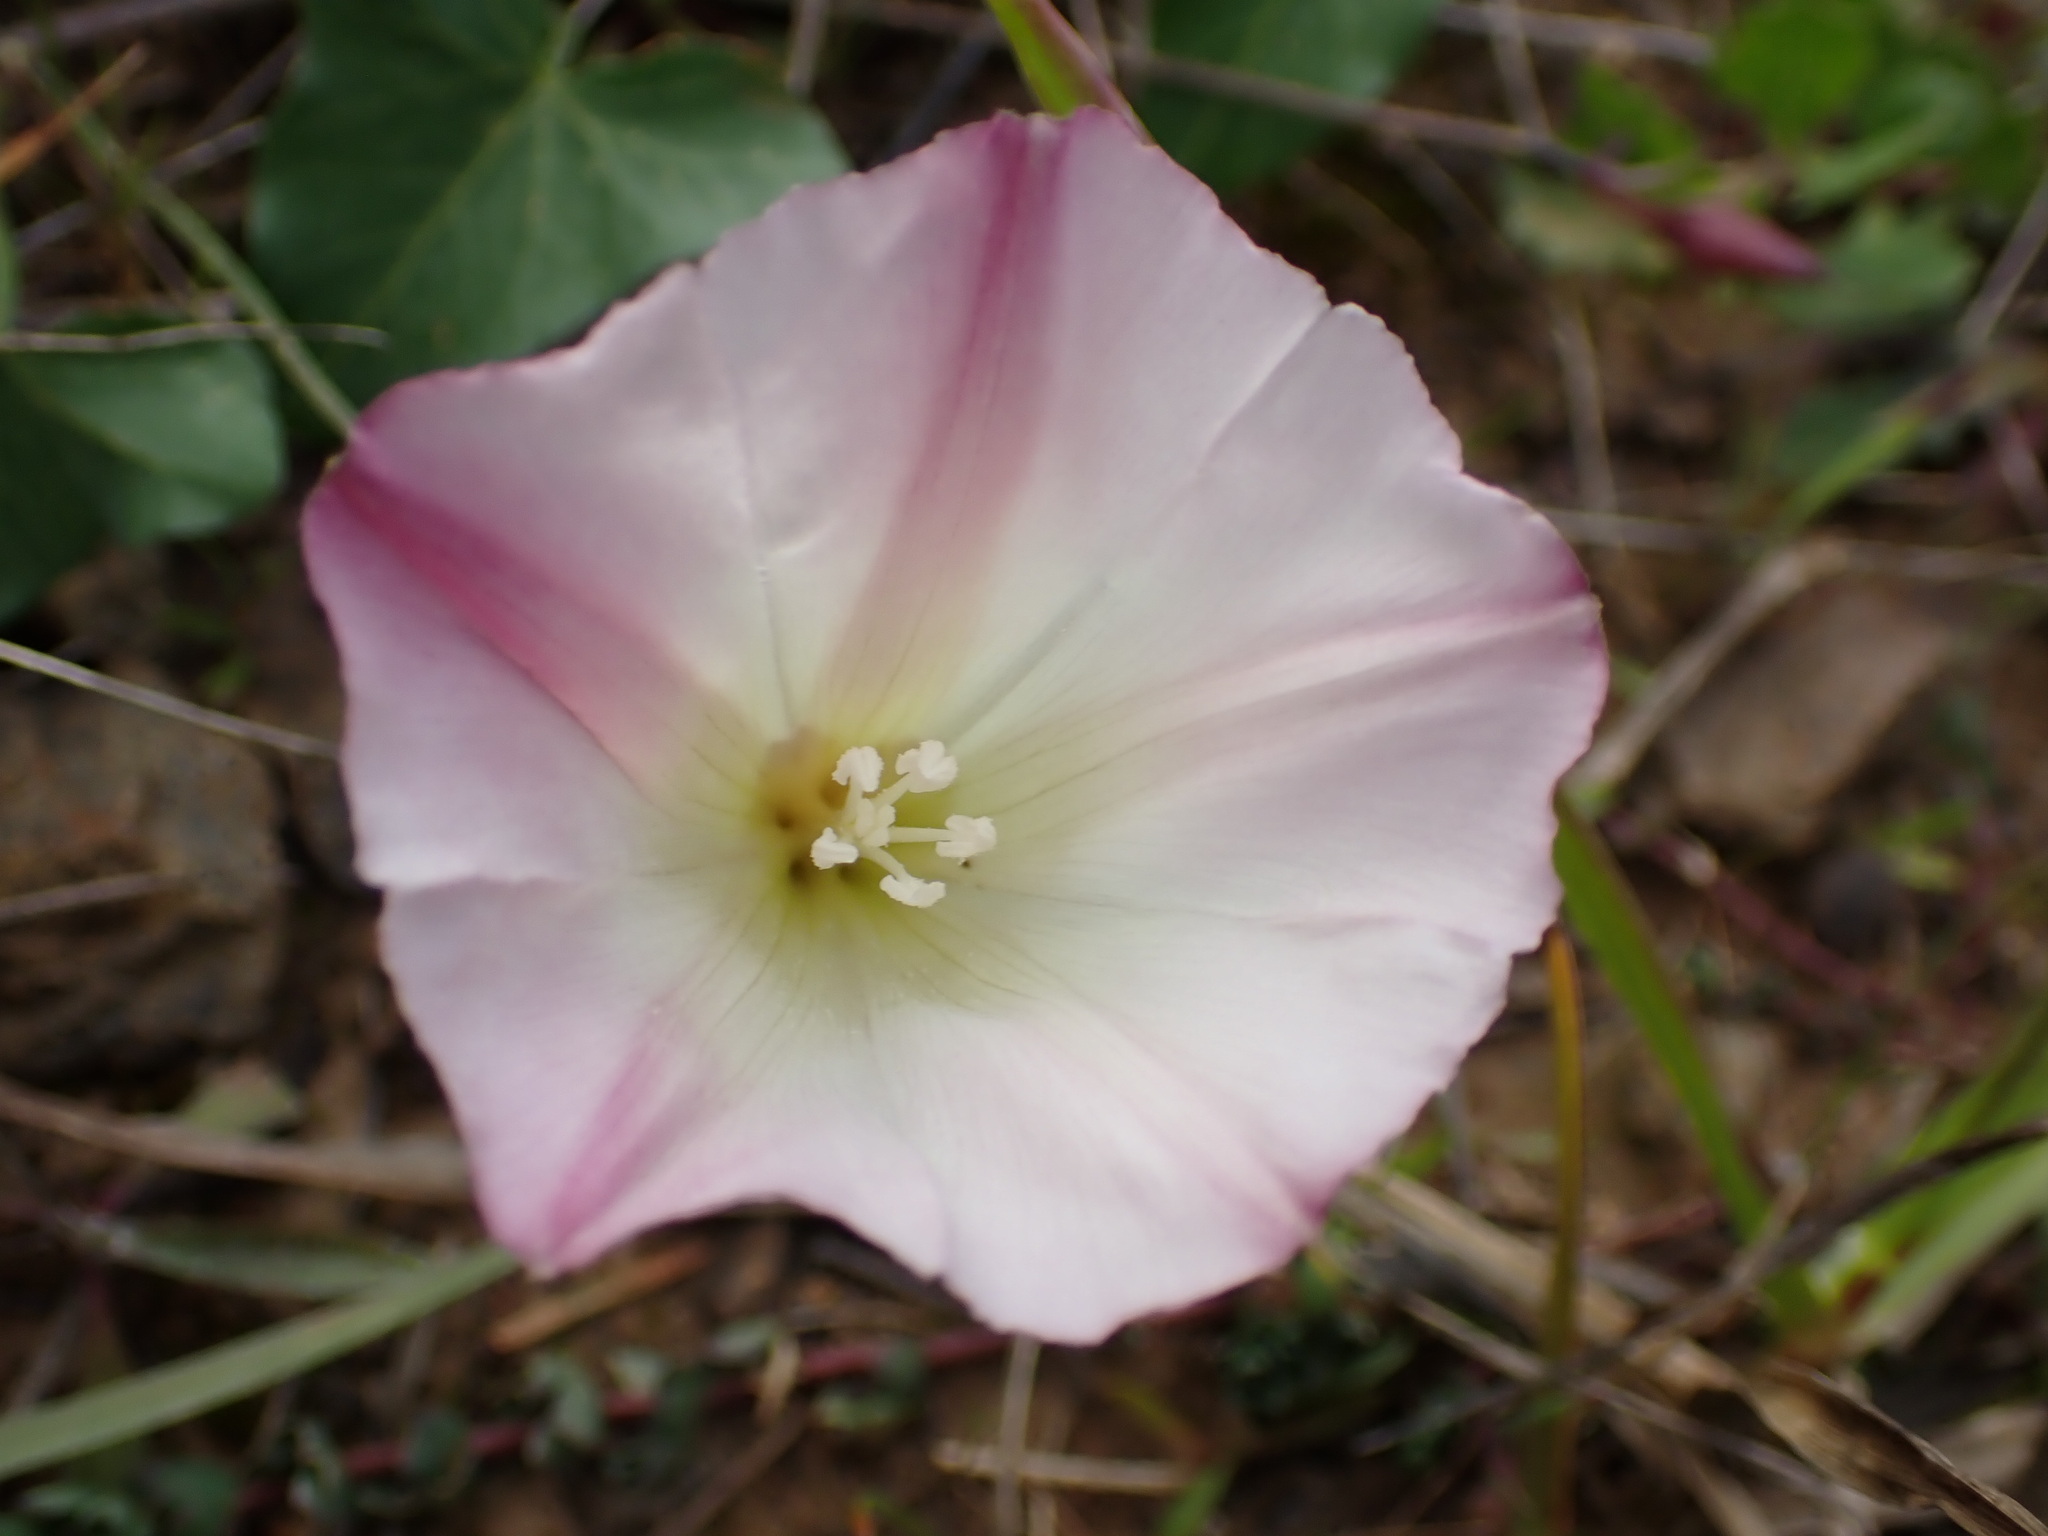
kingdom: Plantae
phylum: Tracheophyta
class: Magnoliopsida
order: Solanales
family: Convolvulaceae
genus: Calystegia
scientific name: Calystegia purpurata
